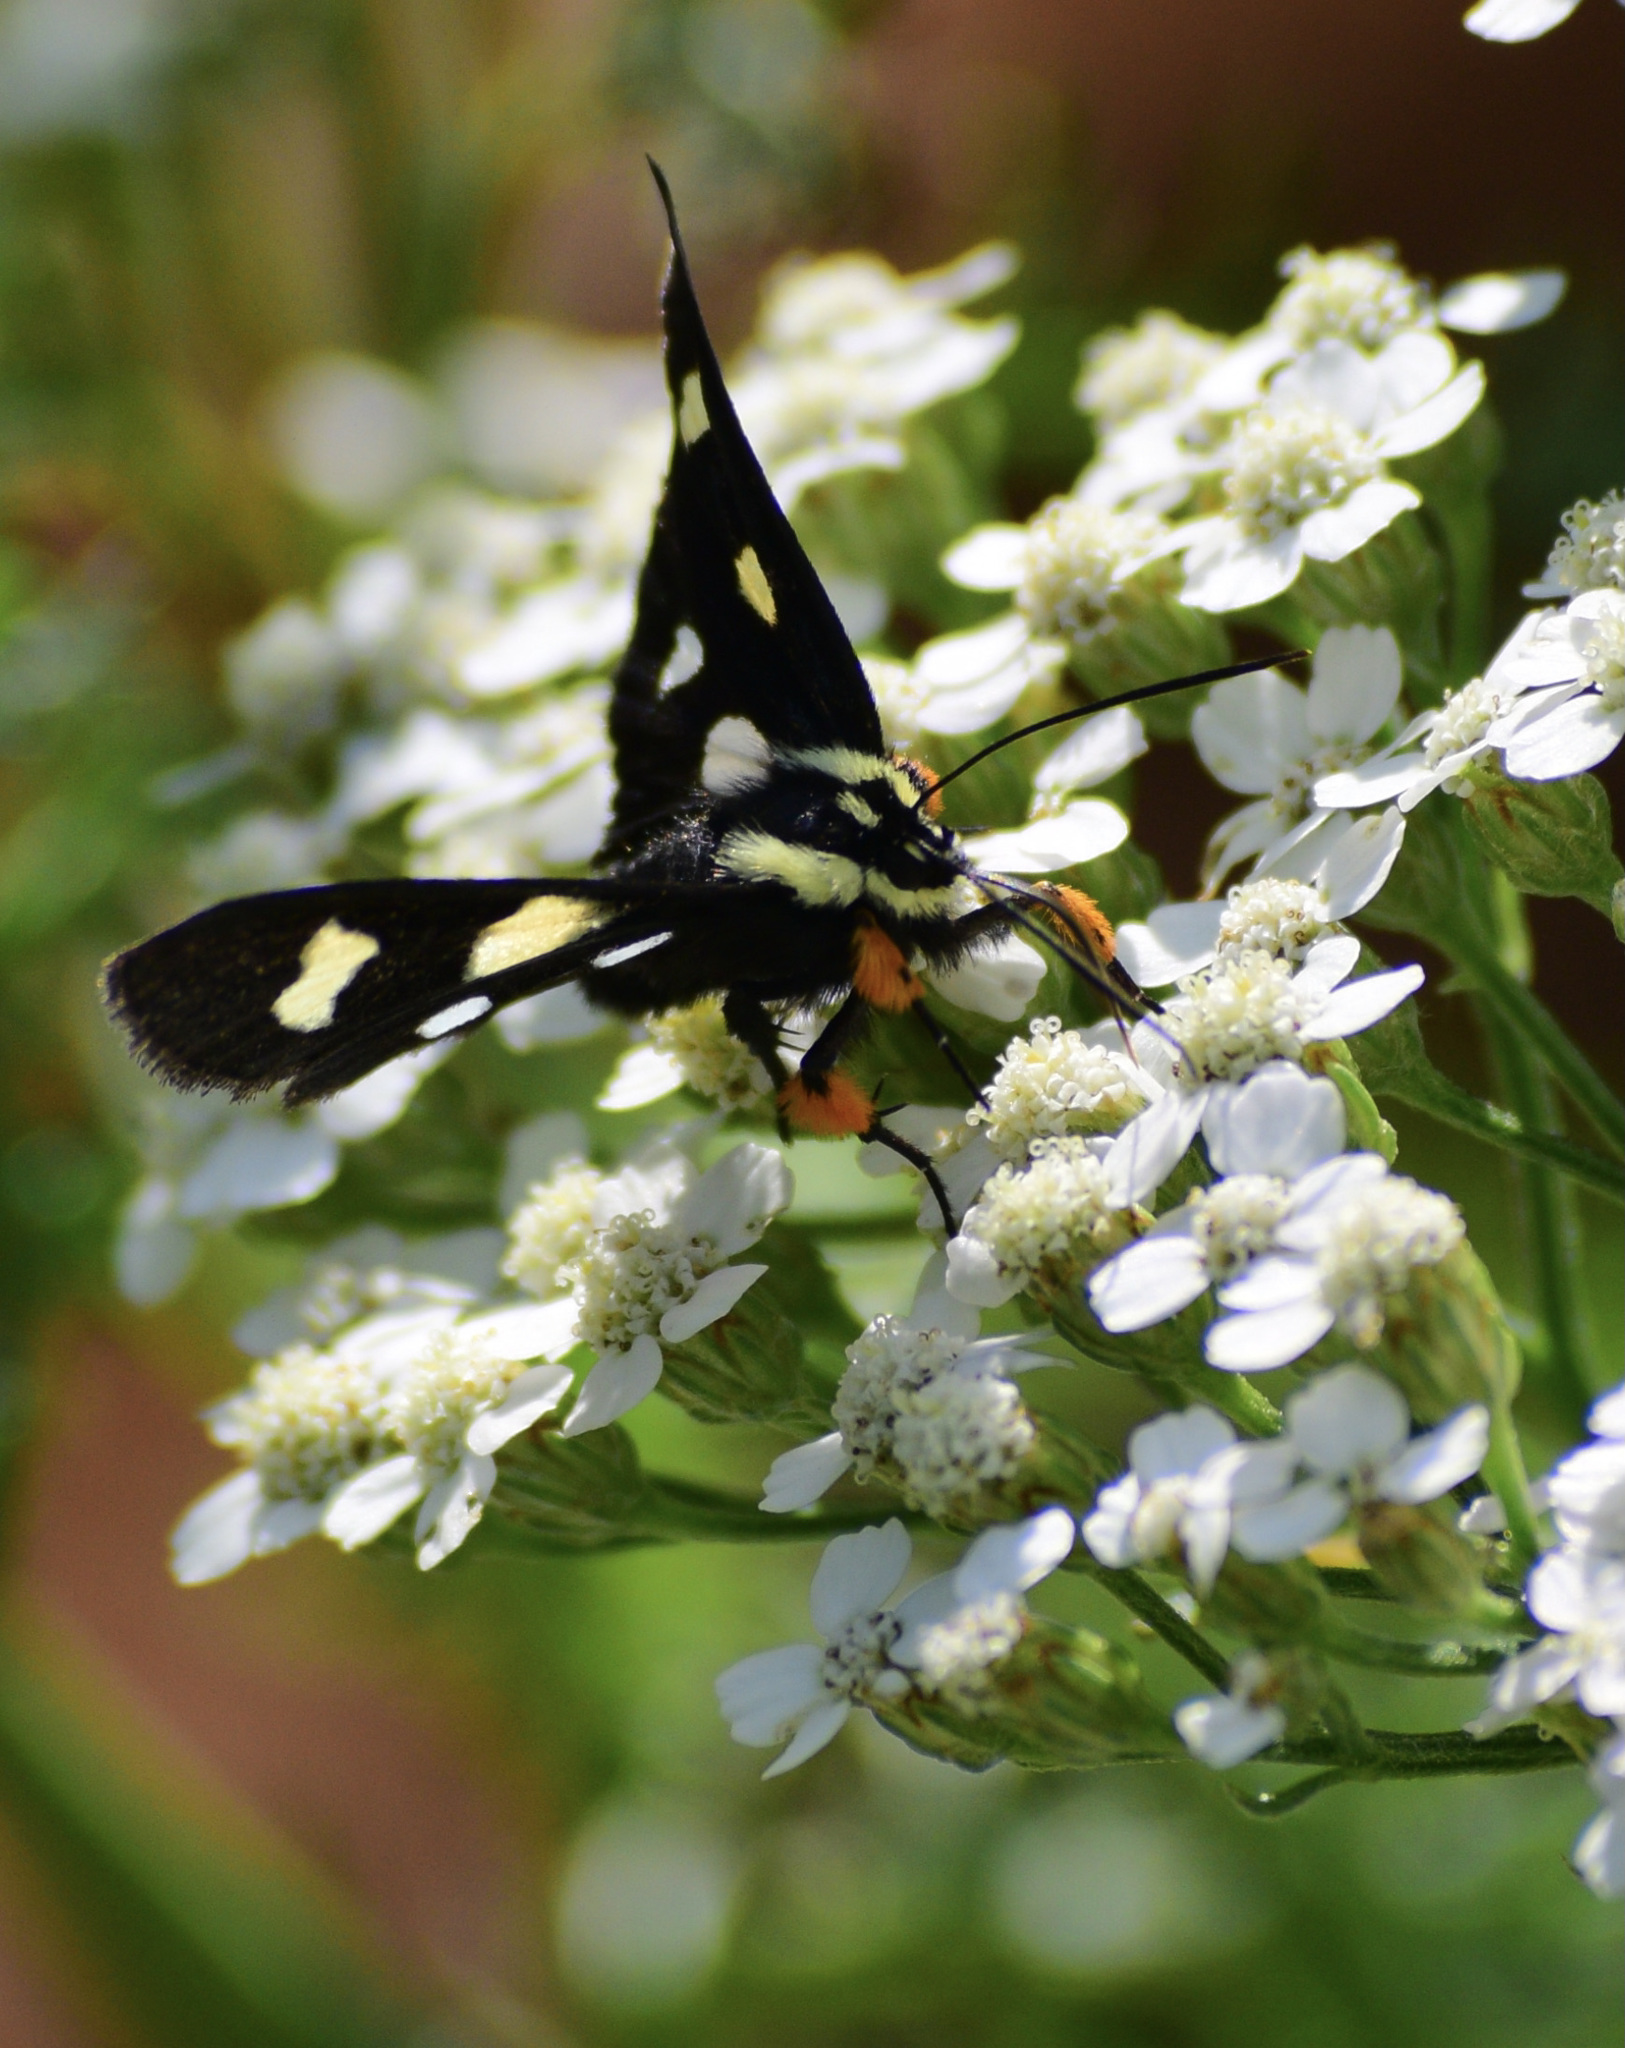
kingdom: Animalia
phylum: Arthropoda
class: Insecta
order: Lepidoptera
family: Noctuidae
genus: Alypia
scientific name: Alypia octomaculata
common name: Eight-spotted forester
